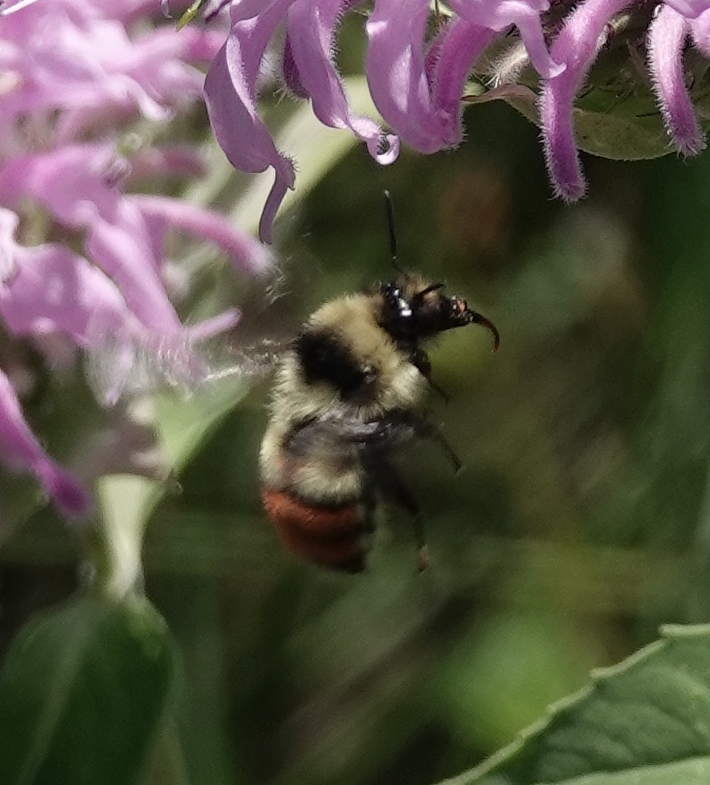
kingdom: Animalia
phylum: Arthropoda
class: Insecta
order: Hymenoptera
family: Apidae
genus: Bombus
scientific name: Bombus centralis
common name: Central bumble bee
